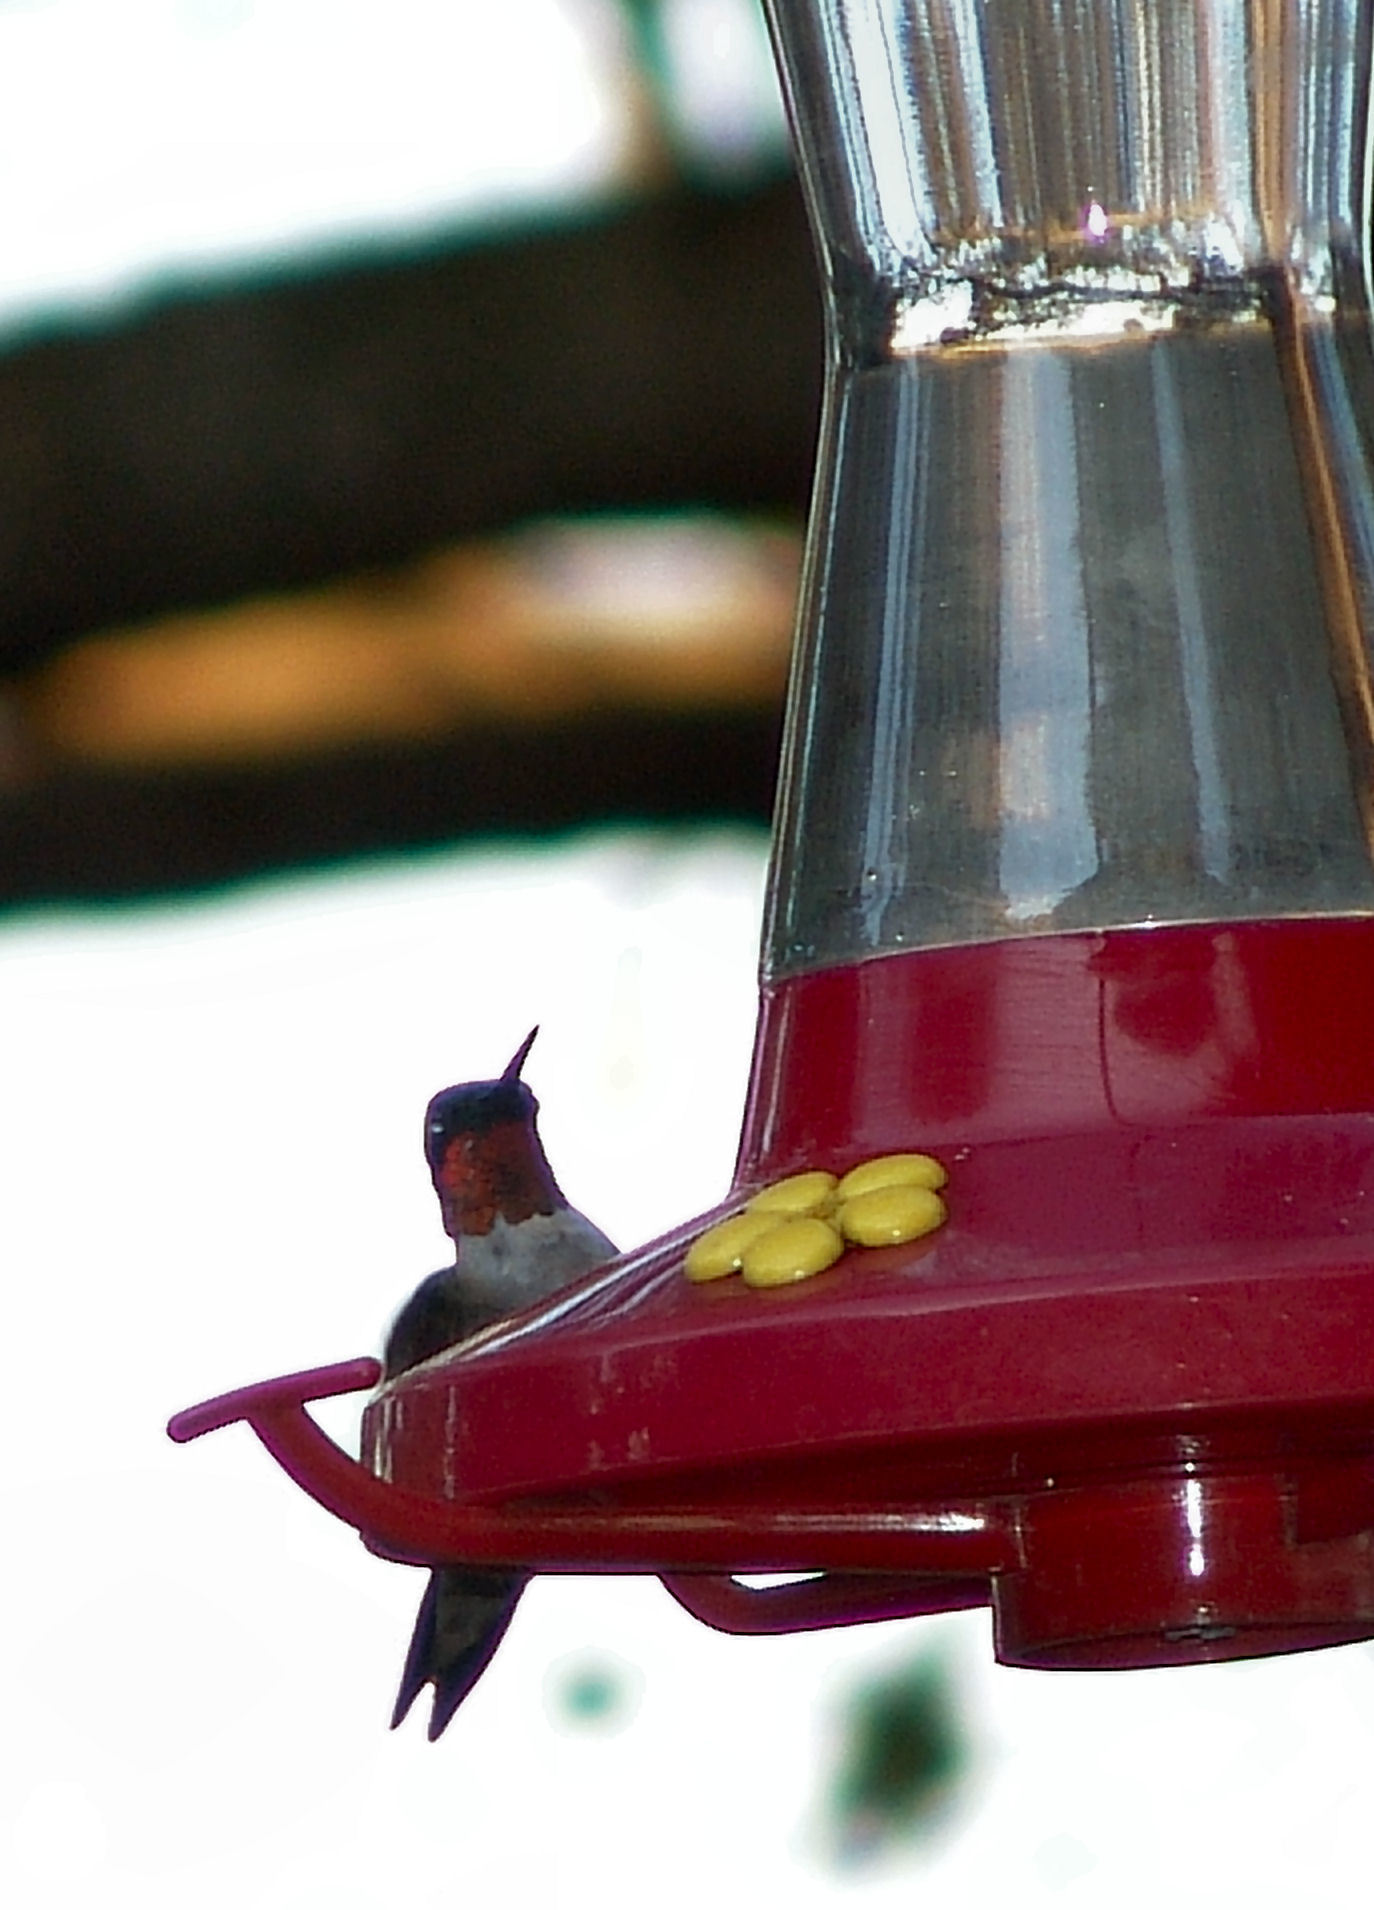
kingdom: Animalia
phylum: Chordata
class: Aves
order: Apodiformes
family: Trochilidae
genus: Archilochus
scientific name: Archilochus colubris
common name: Ruby-throated hummingbird
